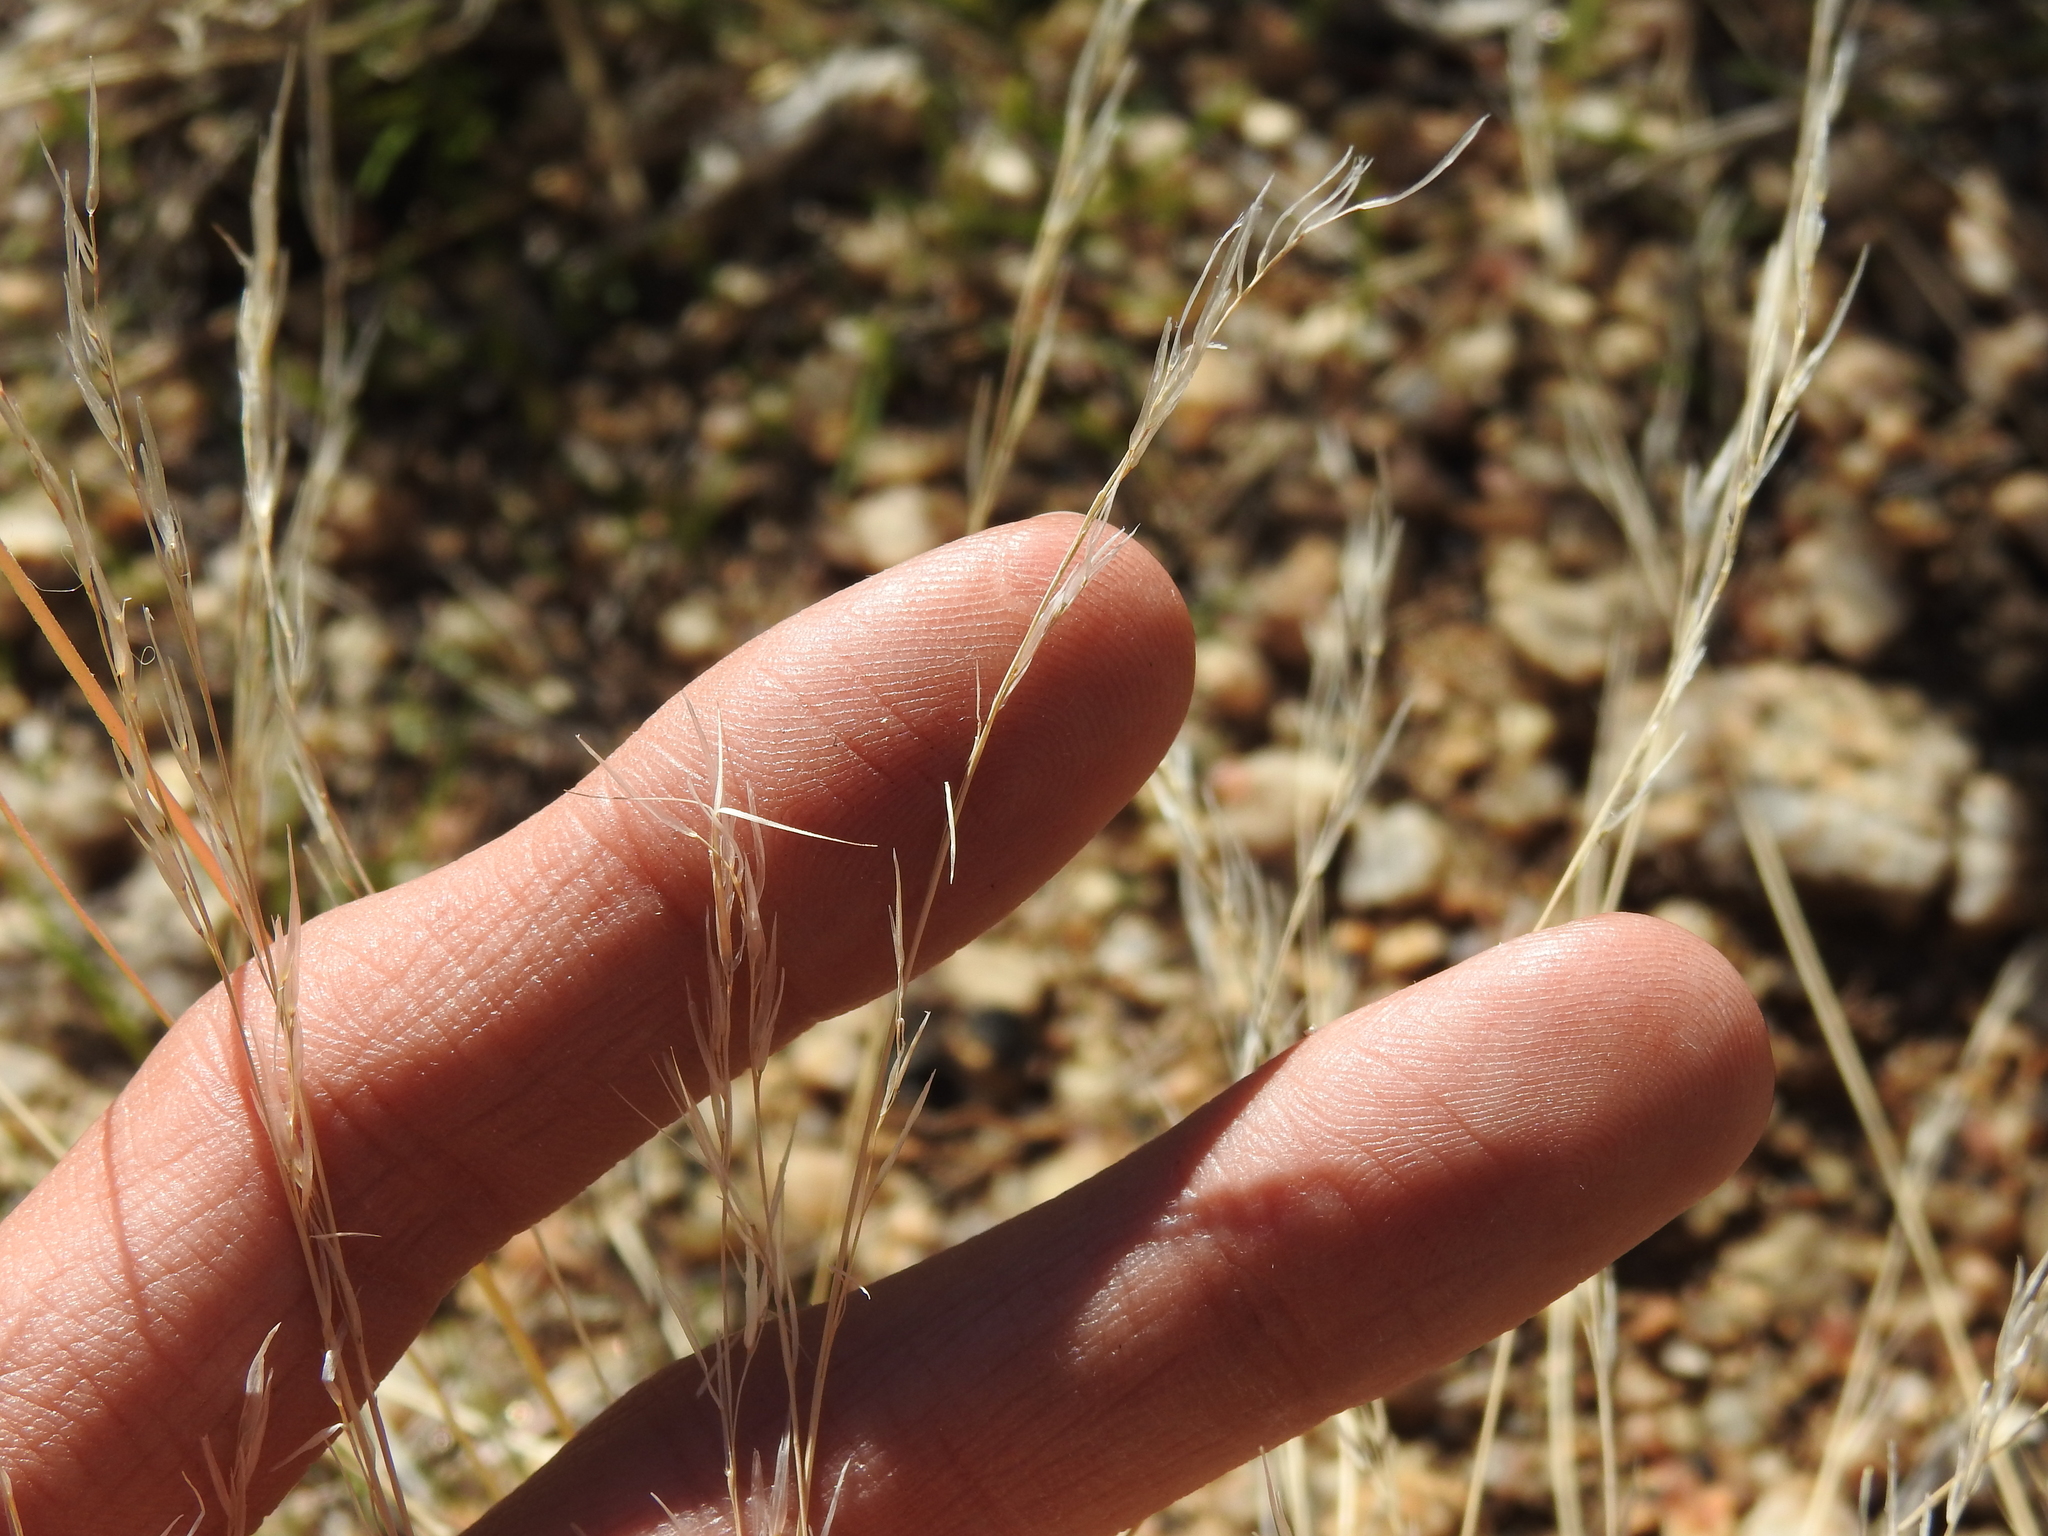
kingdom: Plantae
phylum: Tracheophyta
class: Liliopsida
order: Poales
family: Poaceae
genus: Aristida
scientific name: Aristida adscensionis
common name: Sixweeks threeawn
